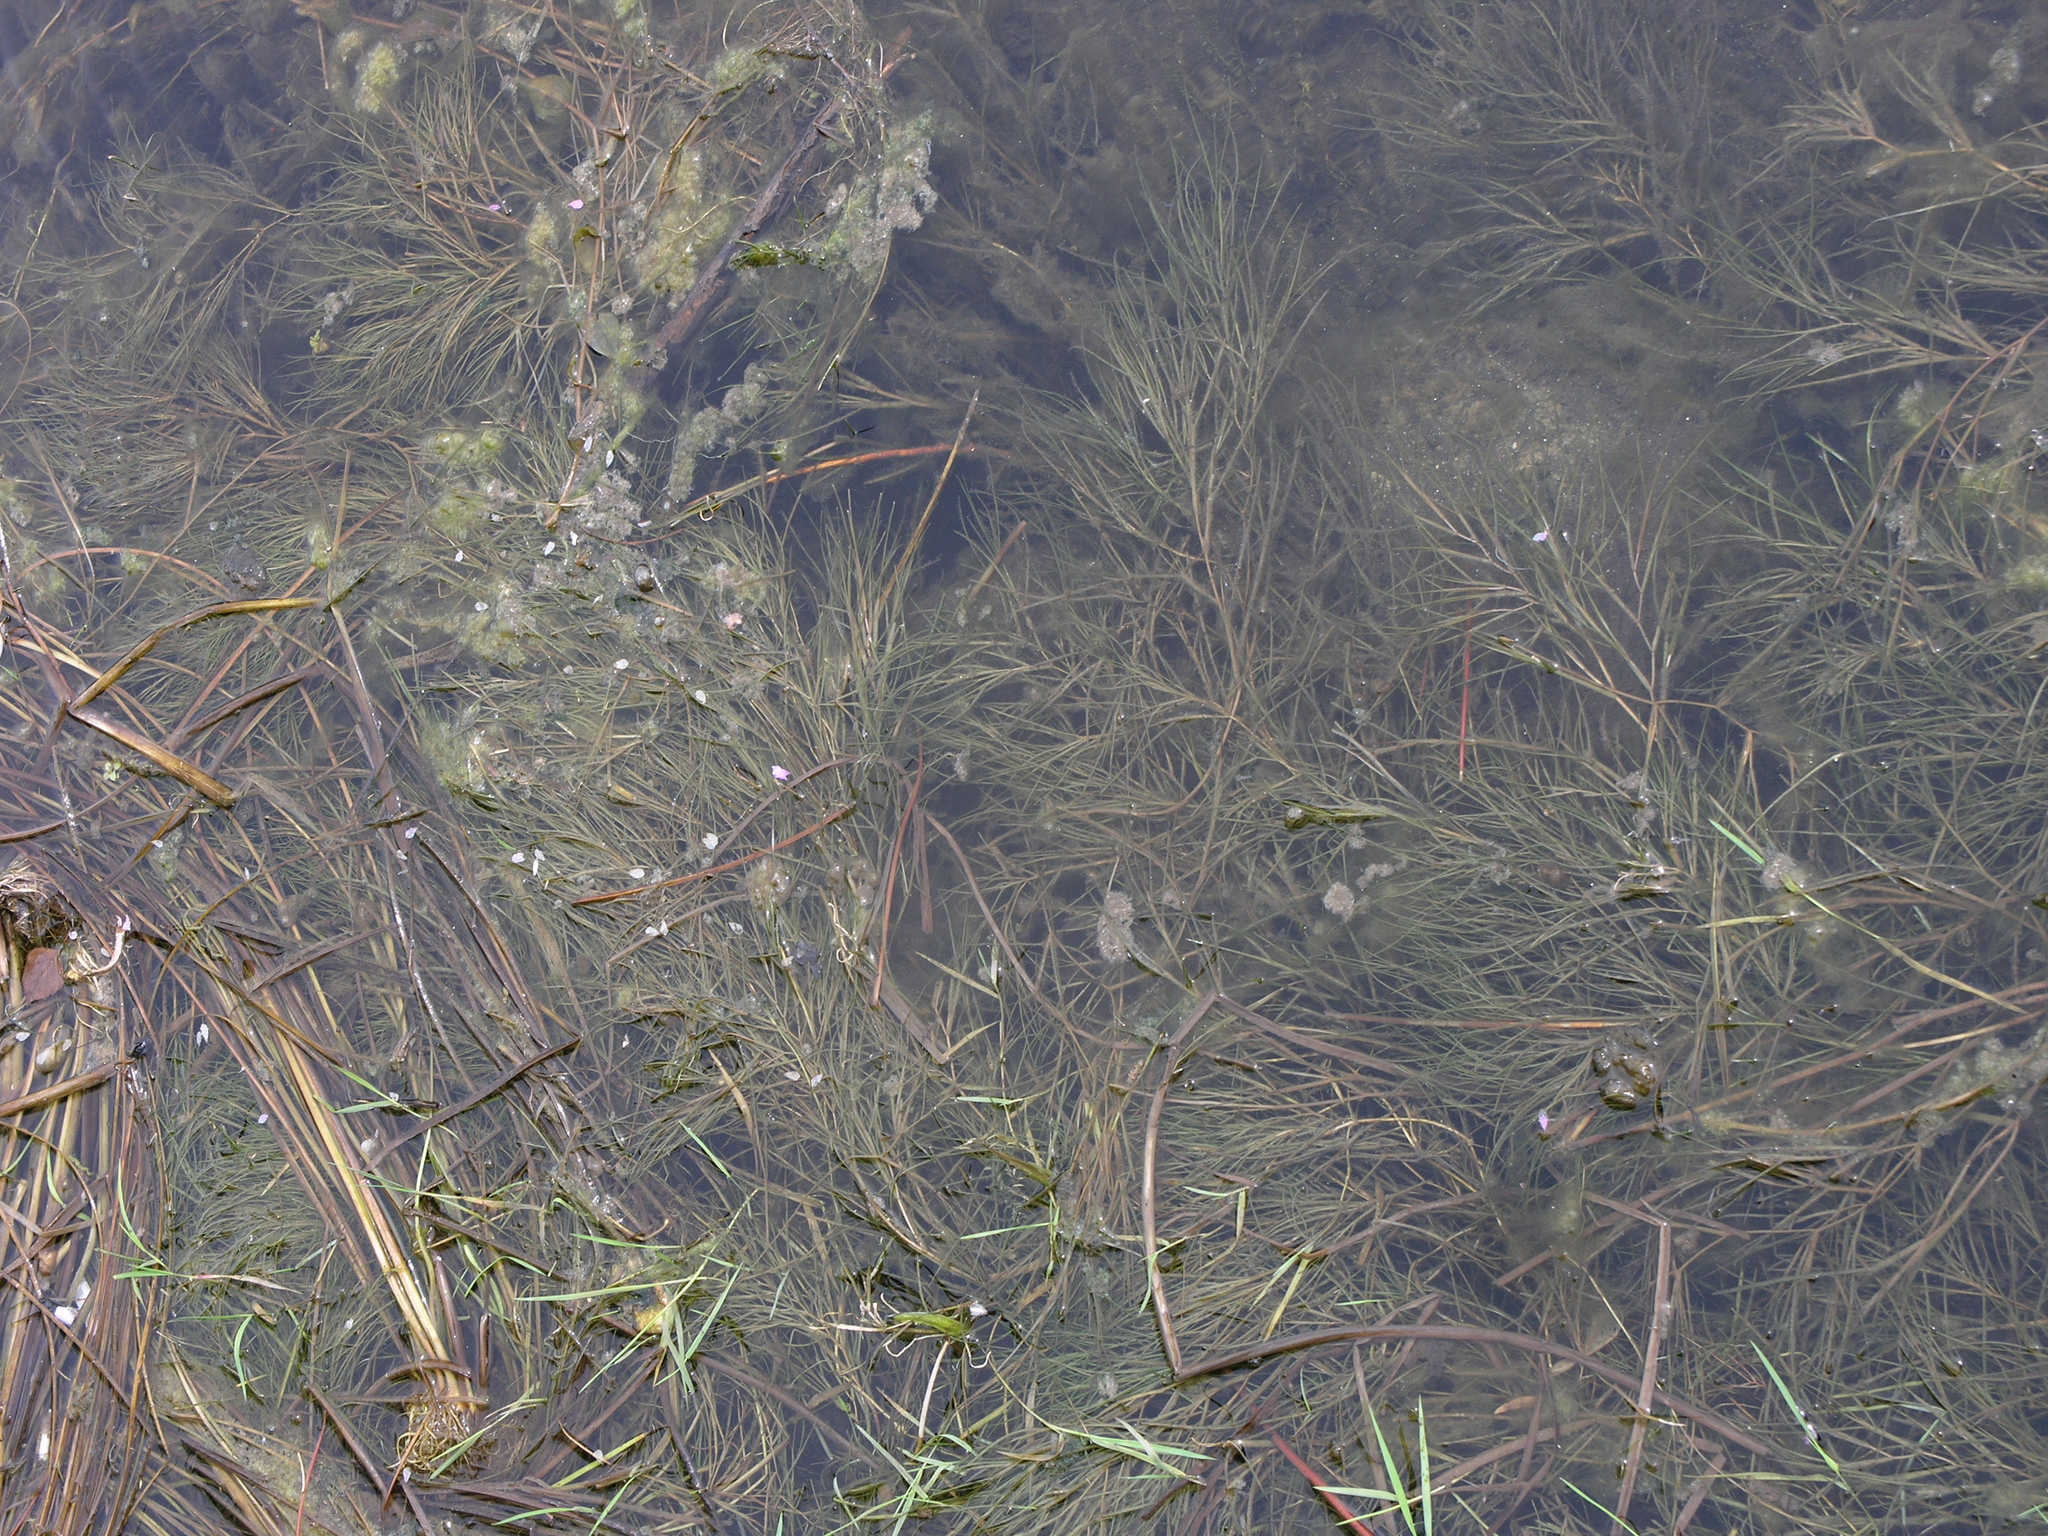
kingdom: Plantae
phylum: Tracheophyta
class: Liliopsida
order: Alismatales
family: Potamogetonaceae
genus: Stuckenia
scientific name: Stuckenia pectinata
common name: Sago pondweed
